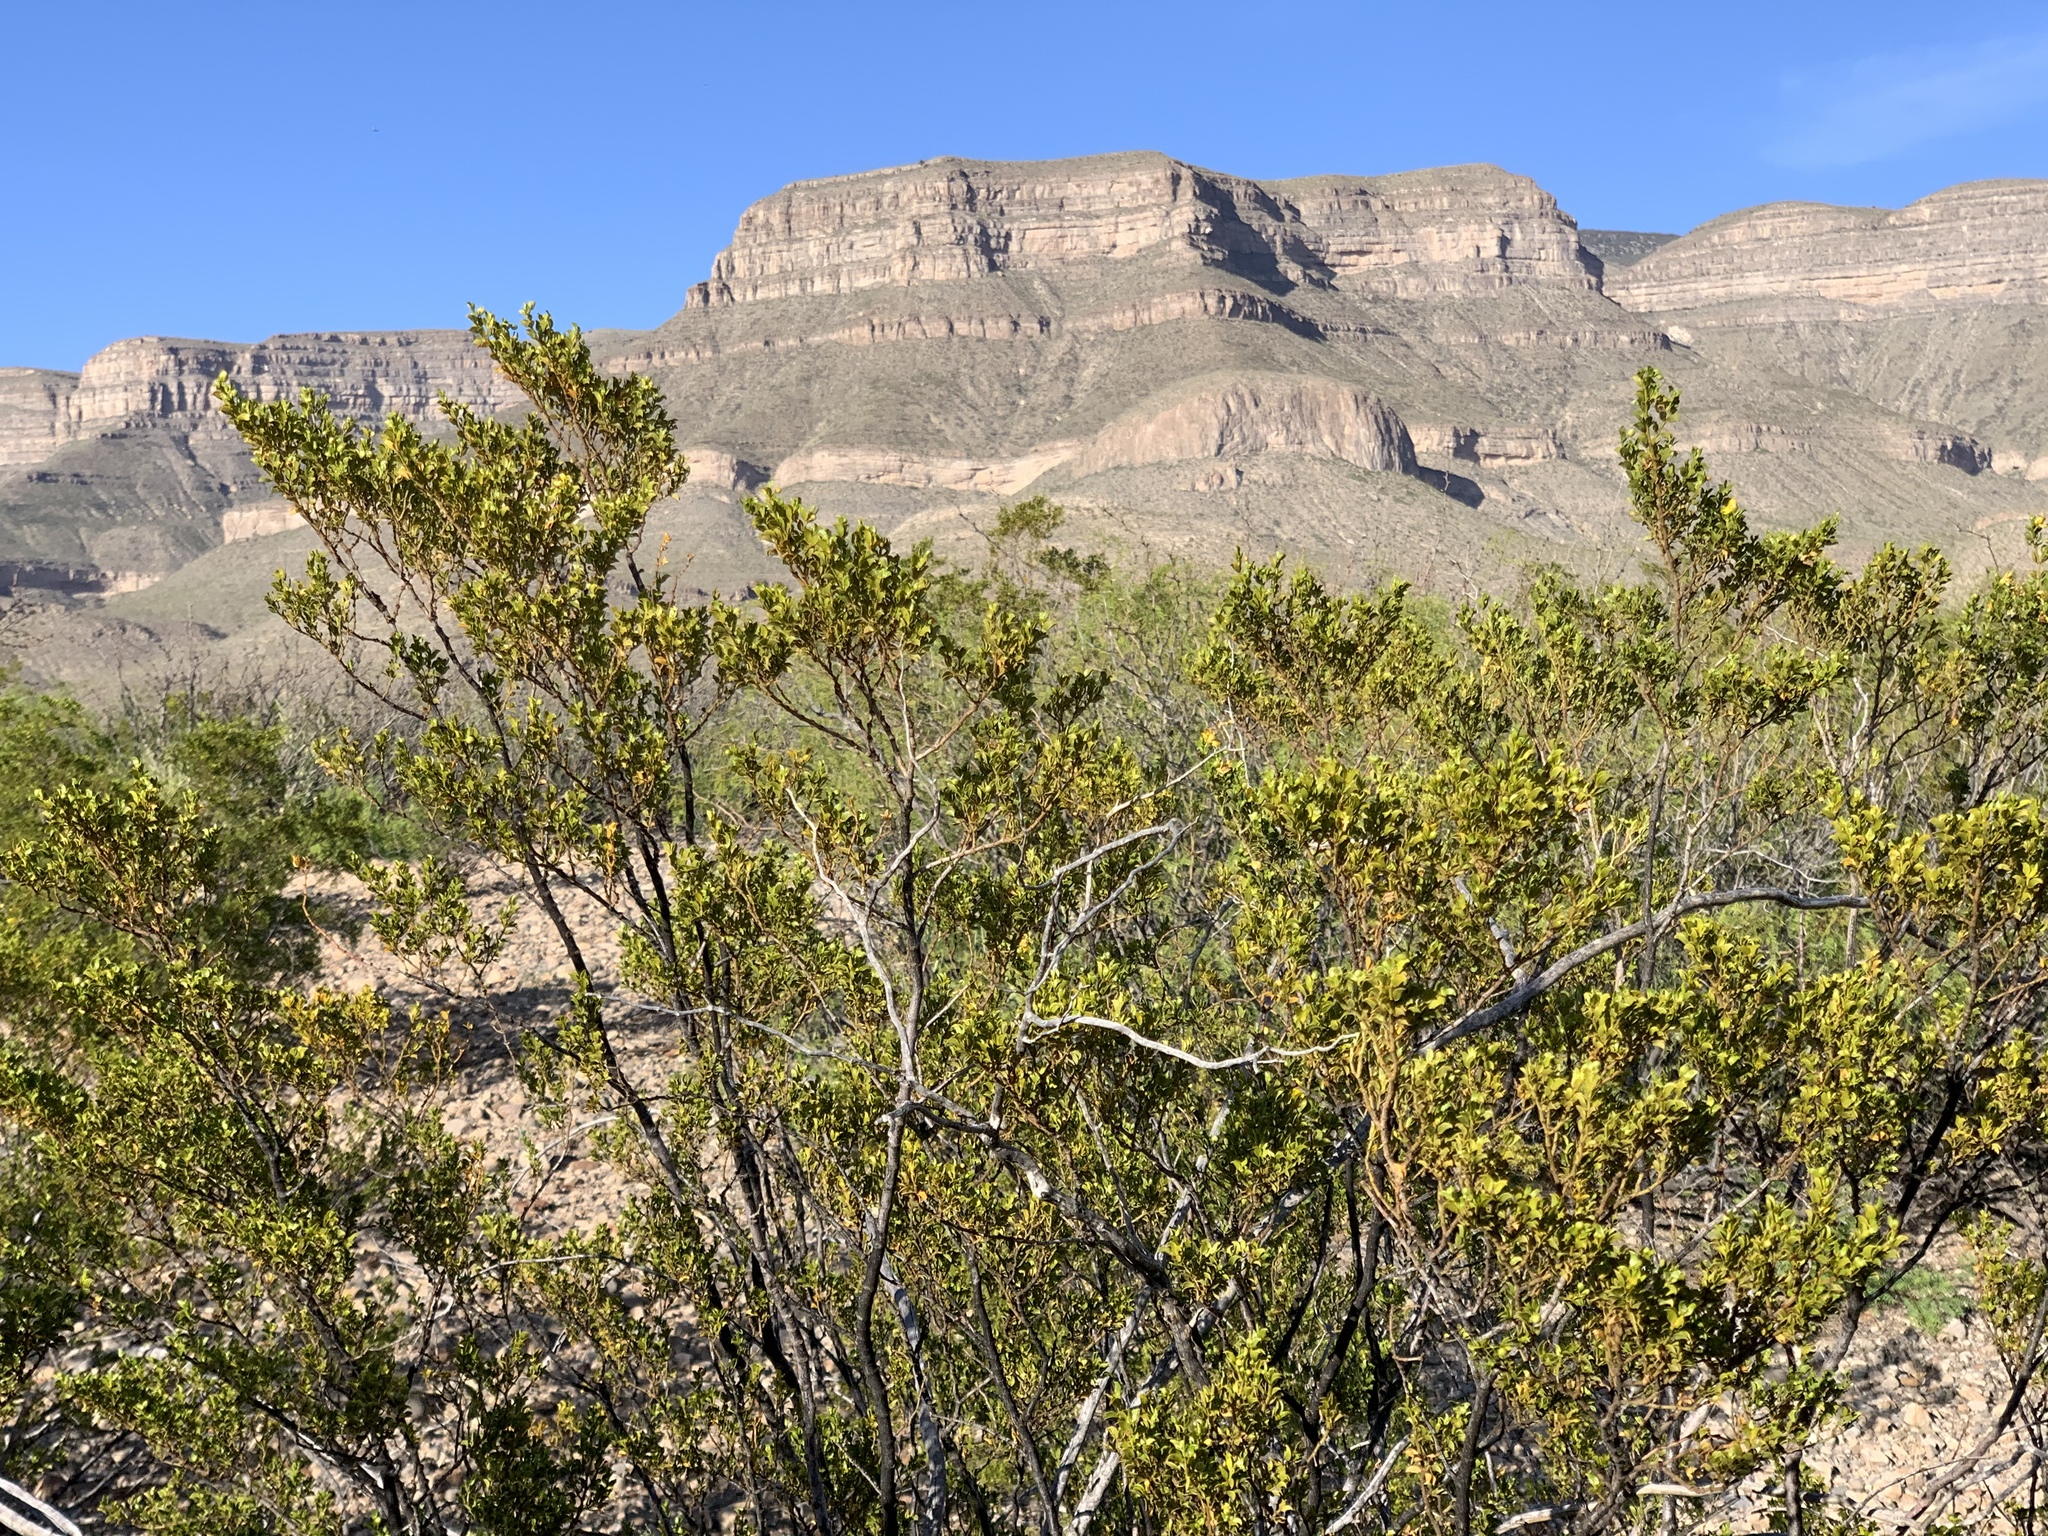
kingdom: Plantae
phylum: Tracheophyta
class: Magnoliopsida
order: Zygophyllales
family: Zygophyllaceae
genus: Larrea
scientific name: Larrea tridentata
